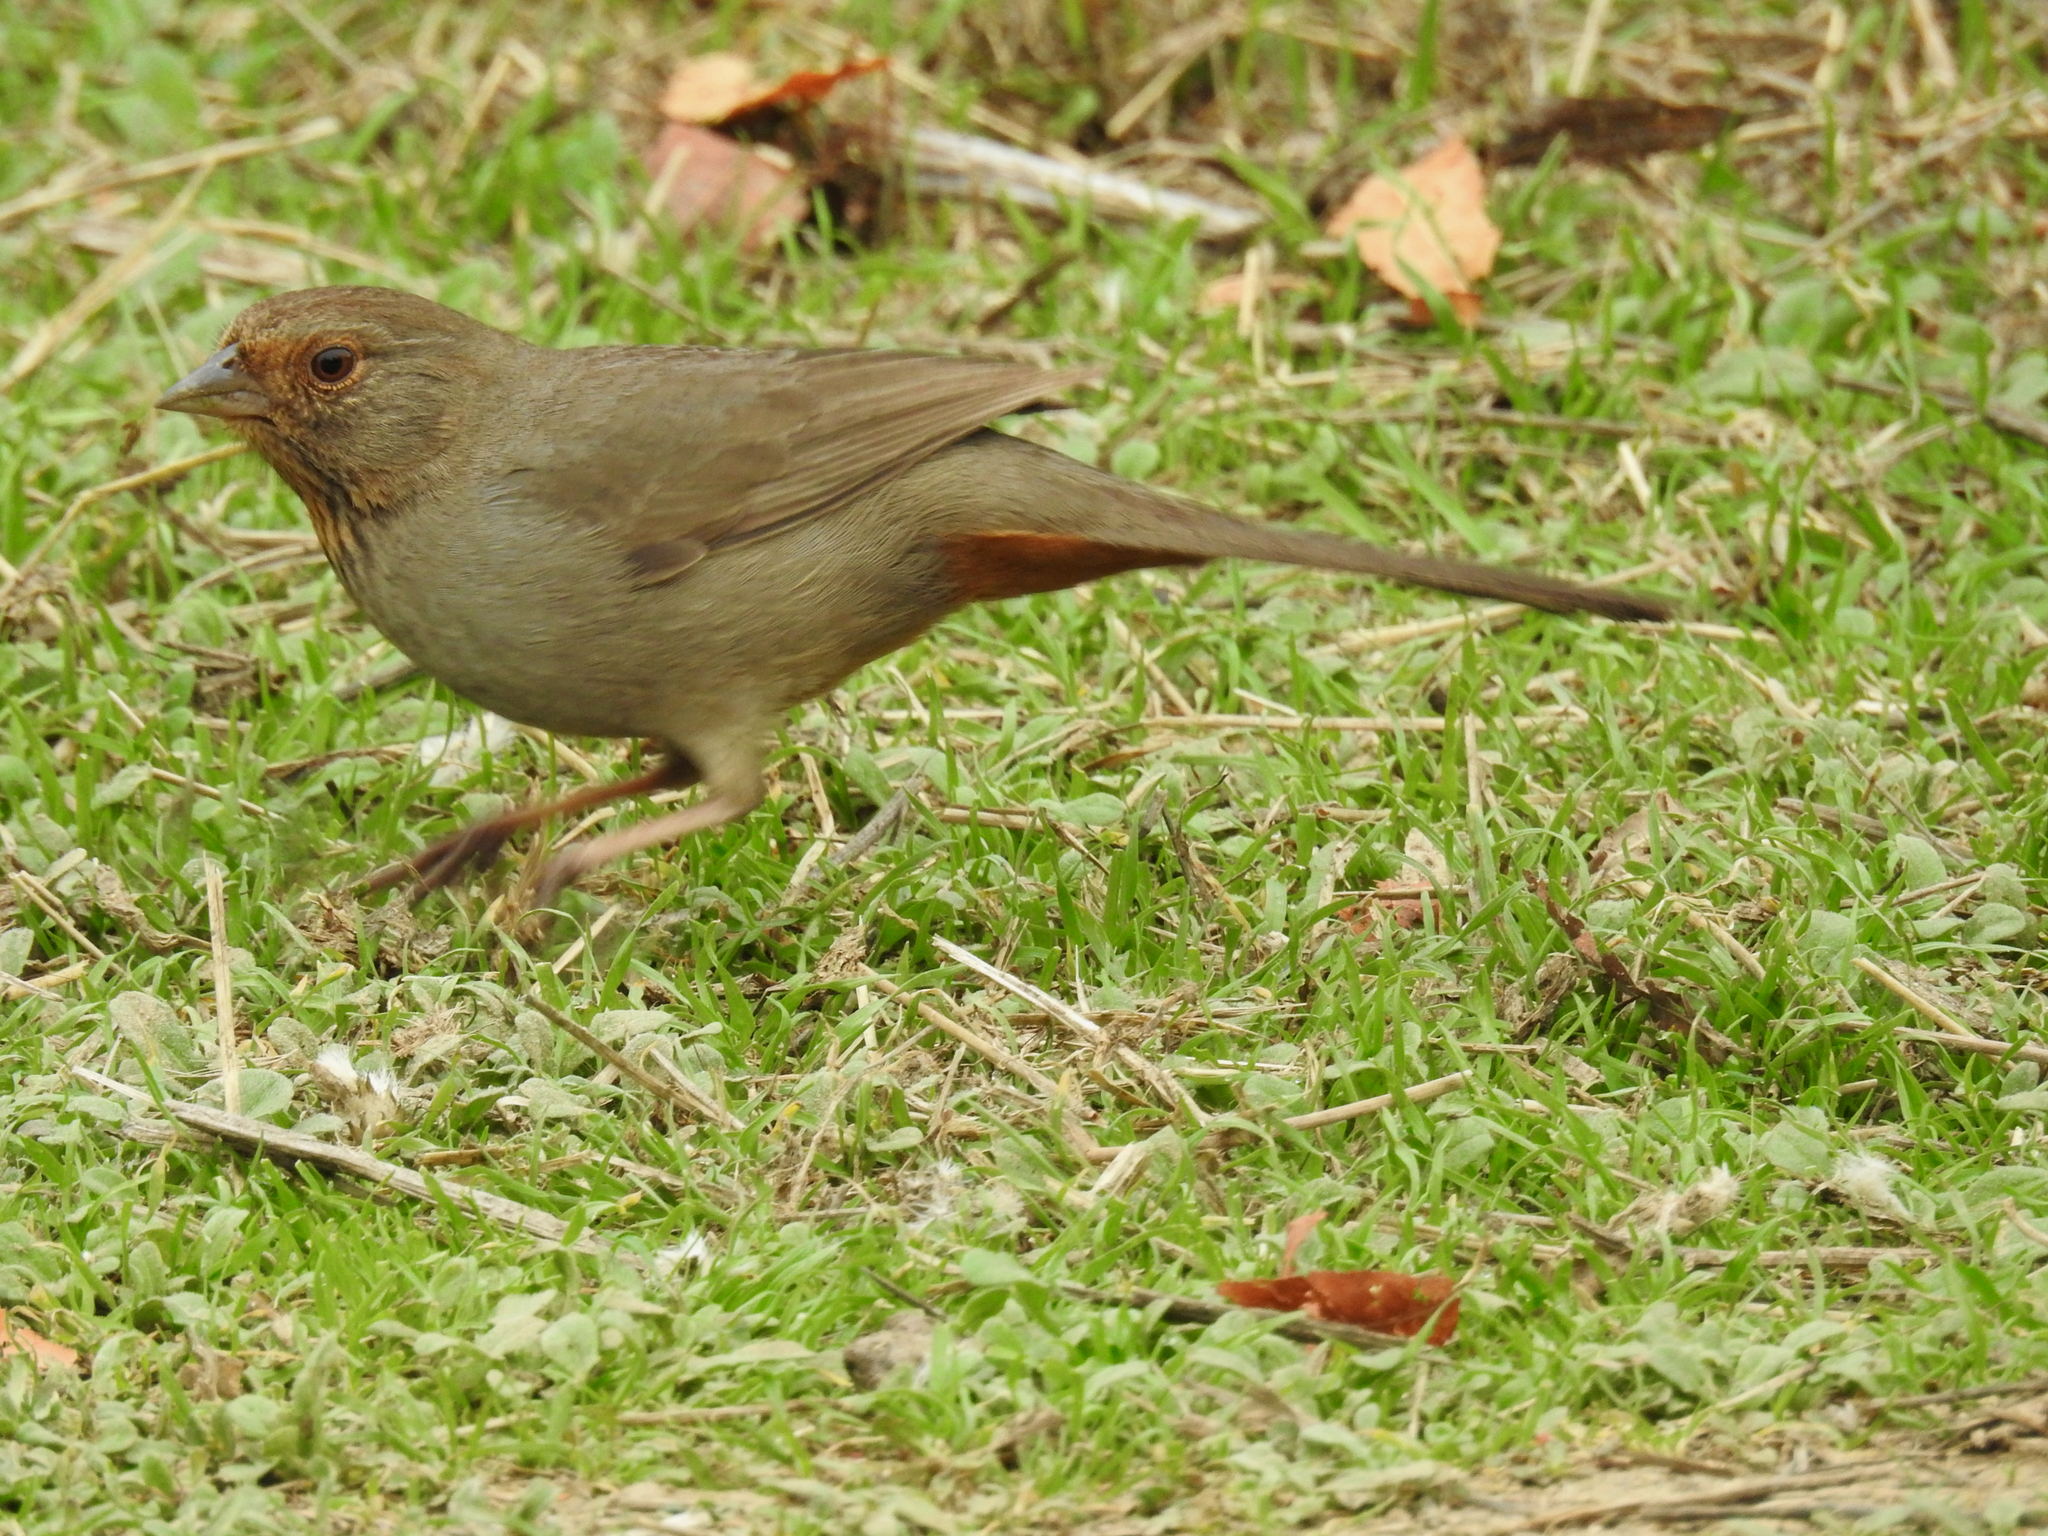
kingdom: Animalia
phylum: Chordata
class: Aves
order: Passeriformes
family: Passerellidae
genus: Melozone
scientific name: Melozone crissalis
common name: California towhee
